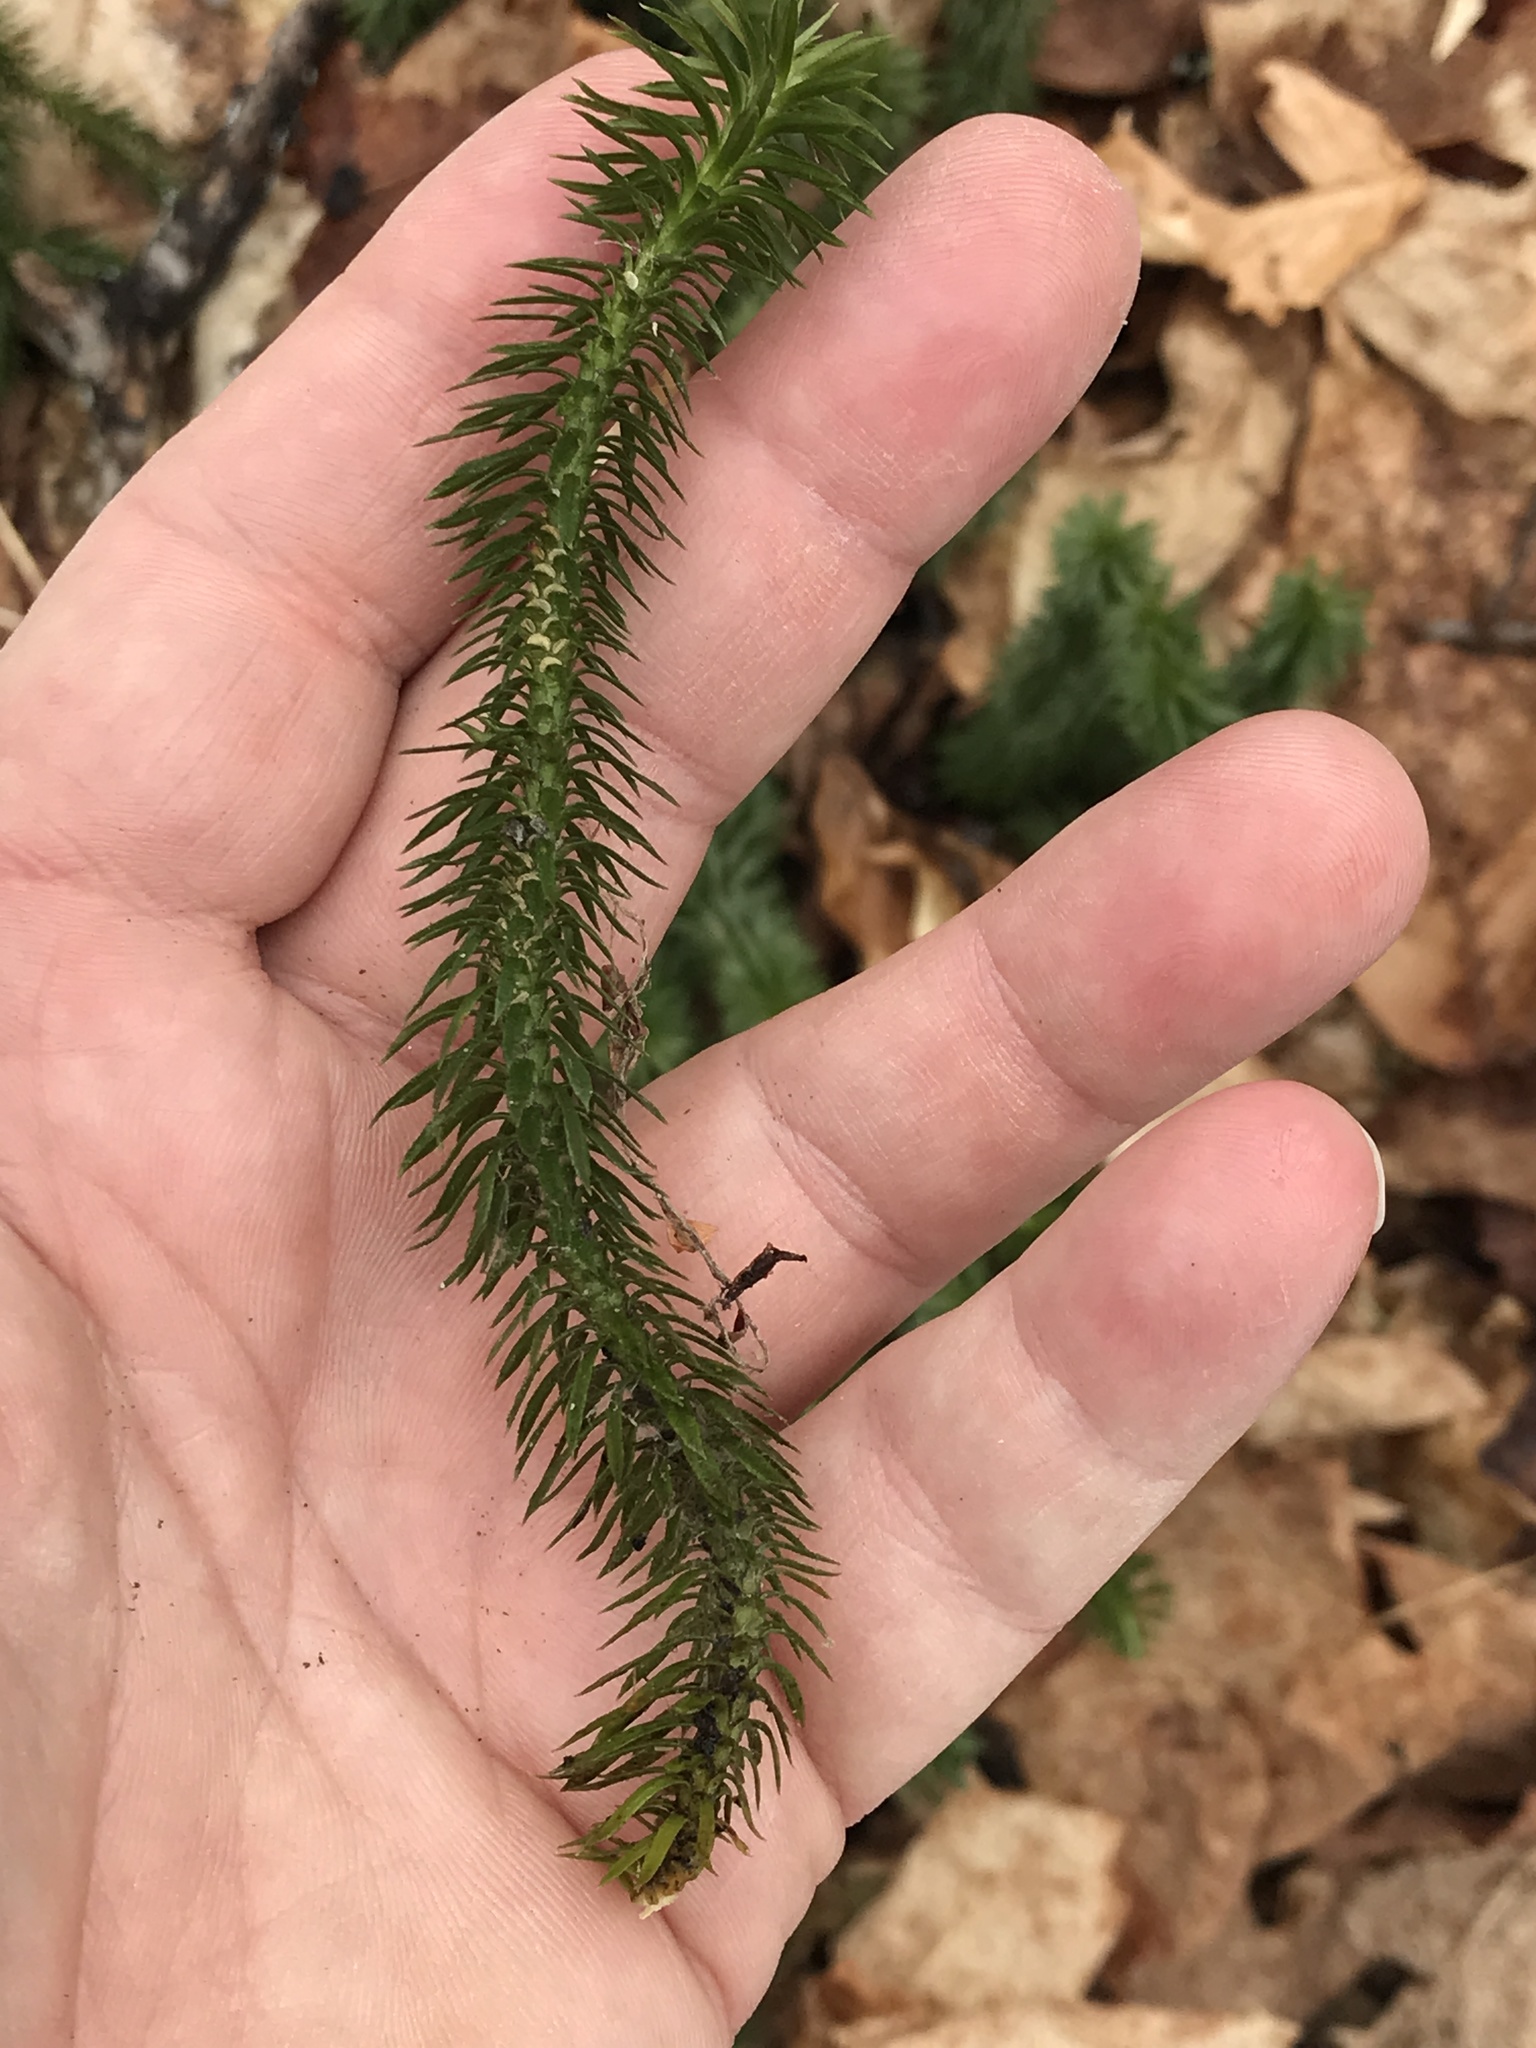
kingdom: Plantae
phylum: Tracheophyta
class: Lycopodiopsida
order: Lycopodiales
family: Lycopodiaceae
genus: Huperzia
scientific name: Huperzia lucidula
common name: Shining clubmoss
